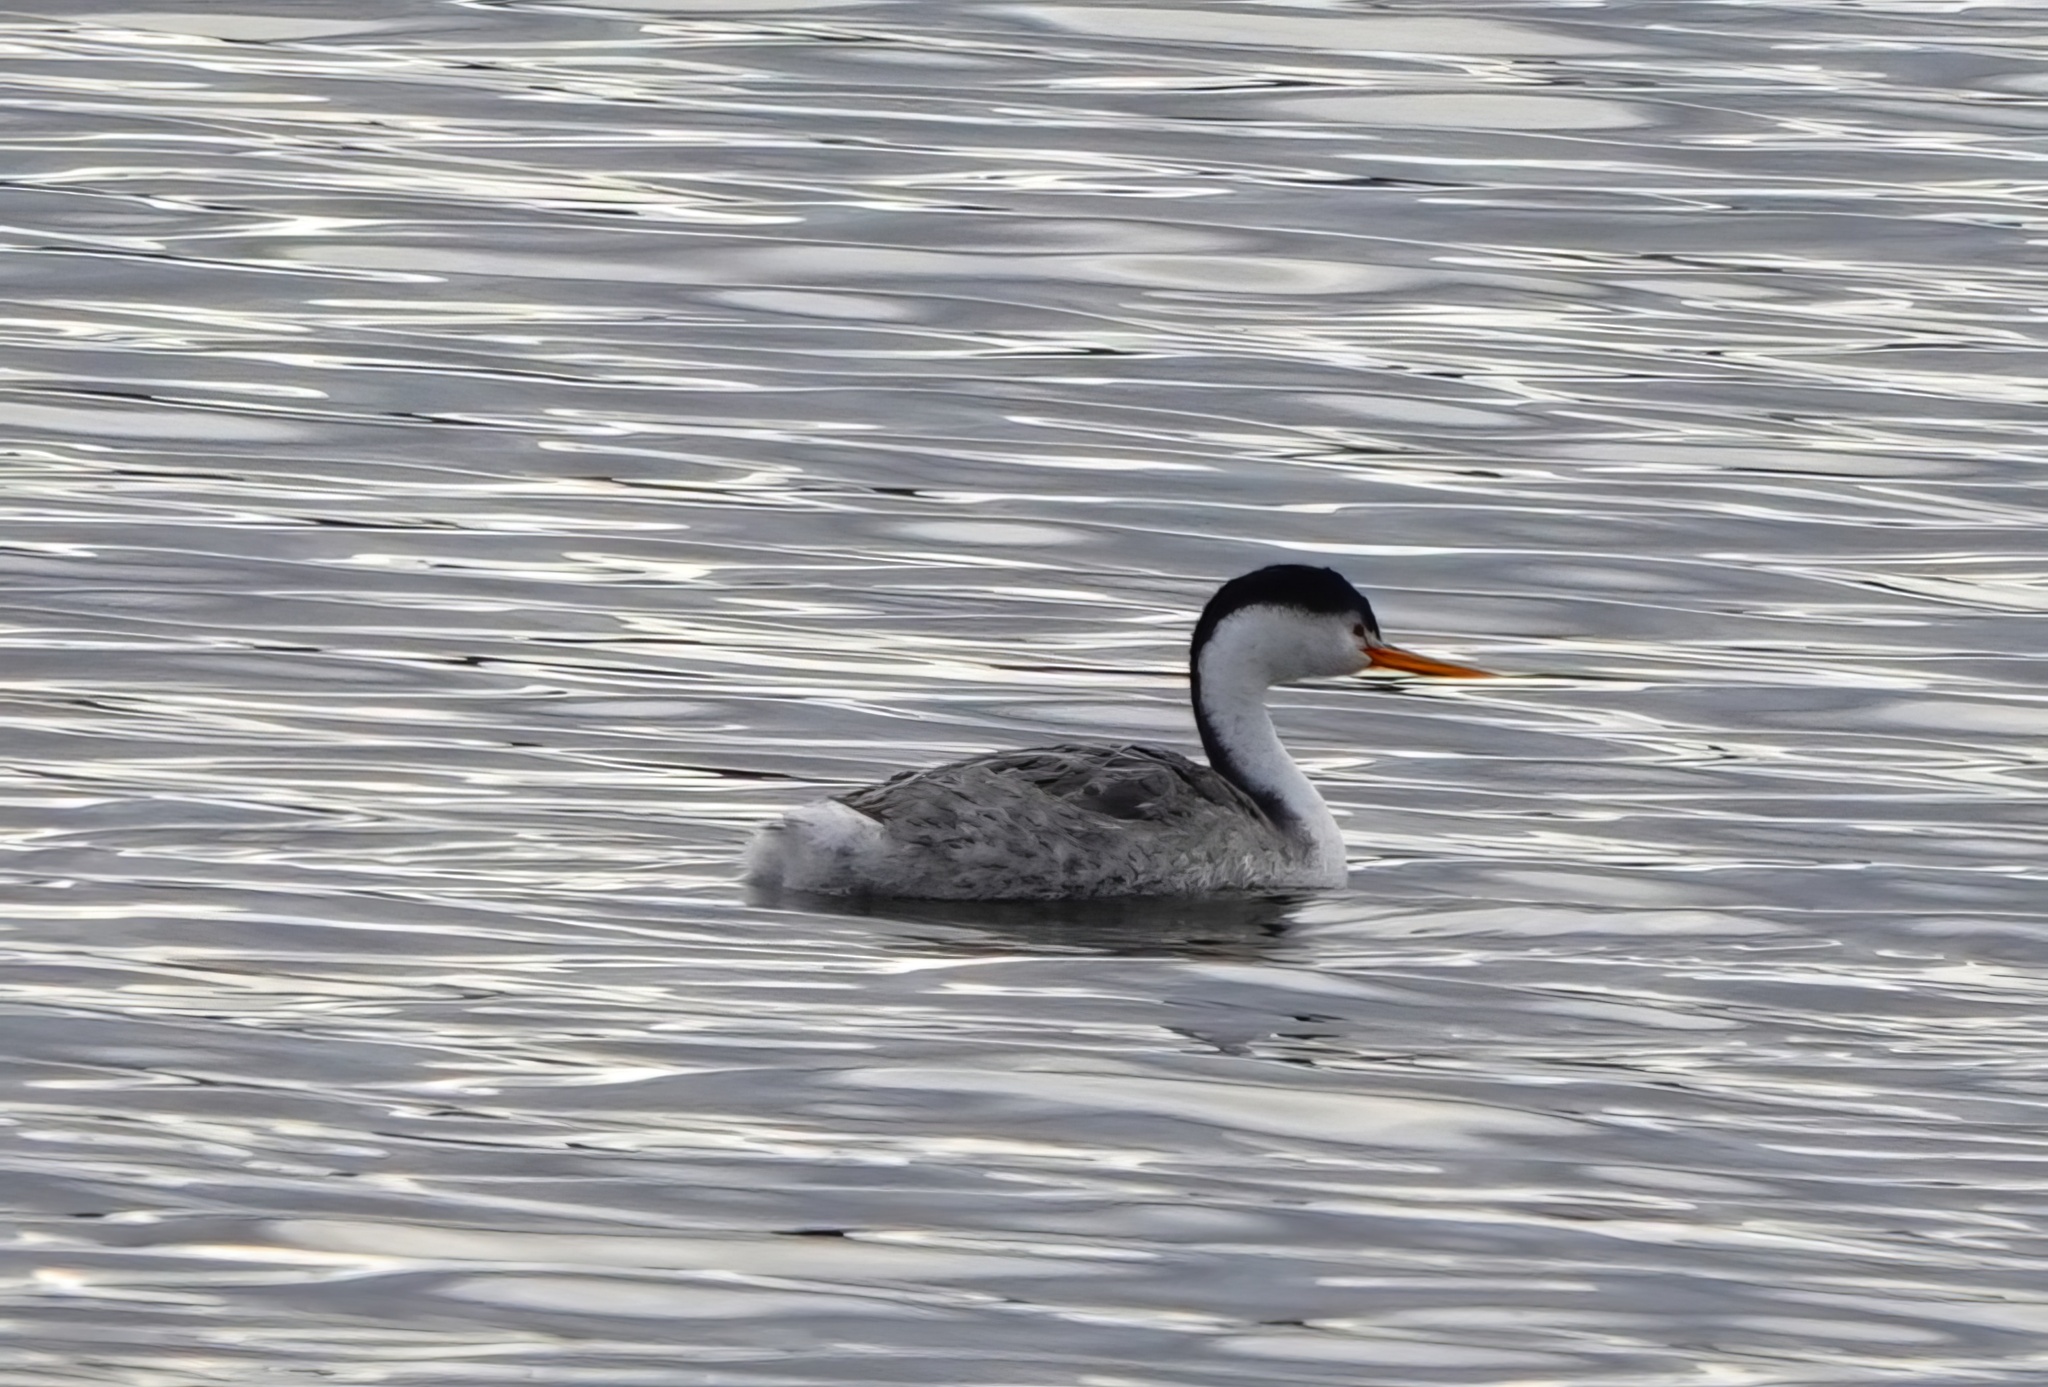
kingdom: Animalia
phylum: Chordata
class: Aves
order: Podicipediformes
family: Podicipedidae
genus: Aechmophorus
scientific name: Aechmophorus clarkii
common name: Clark's grebe
